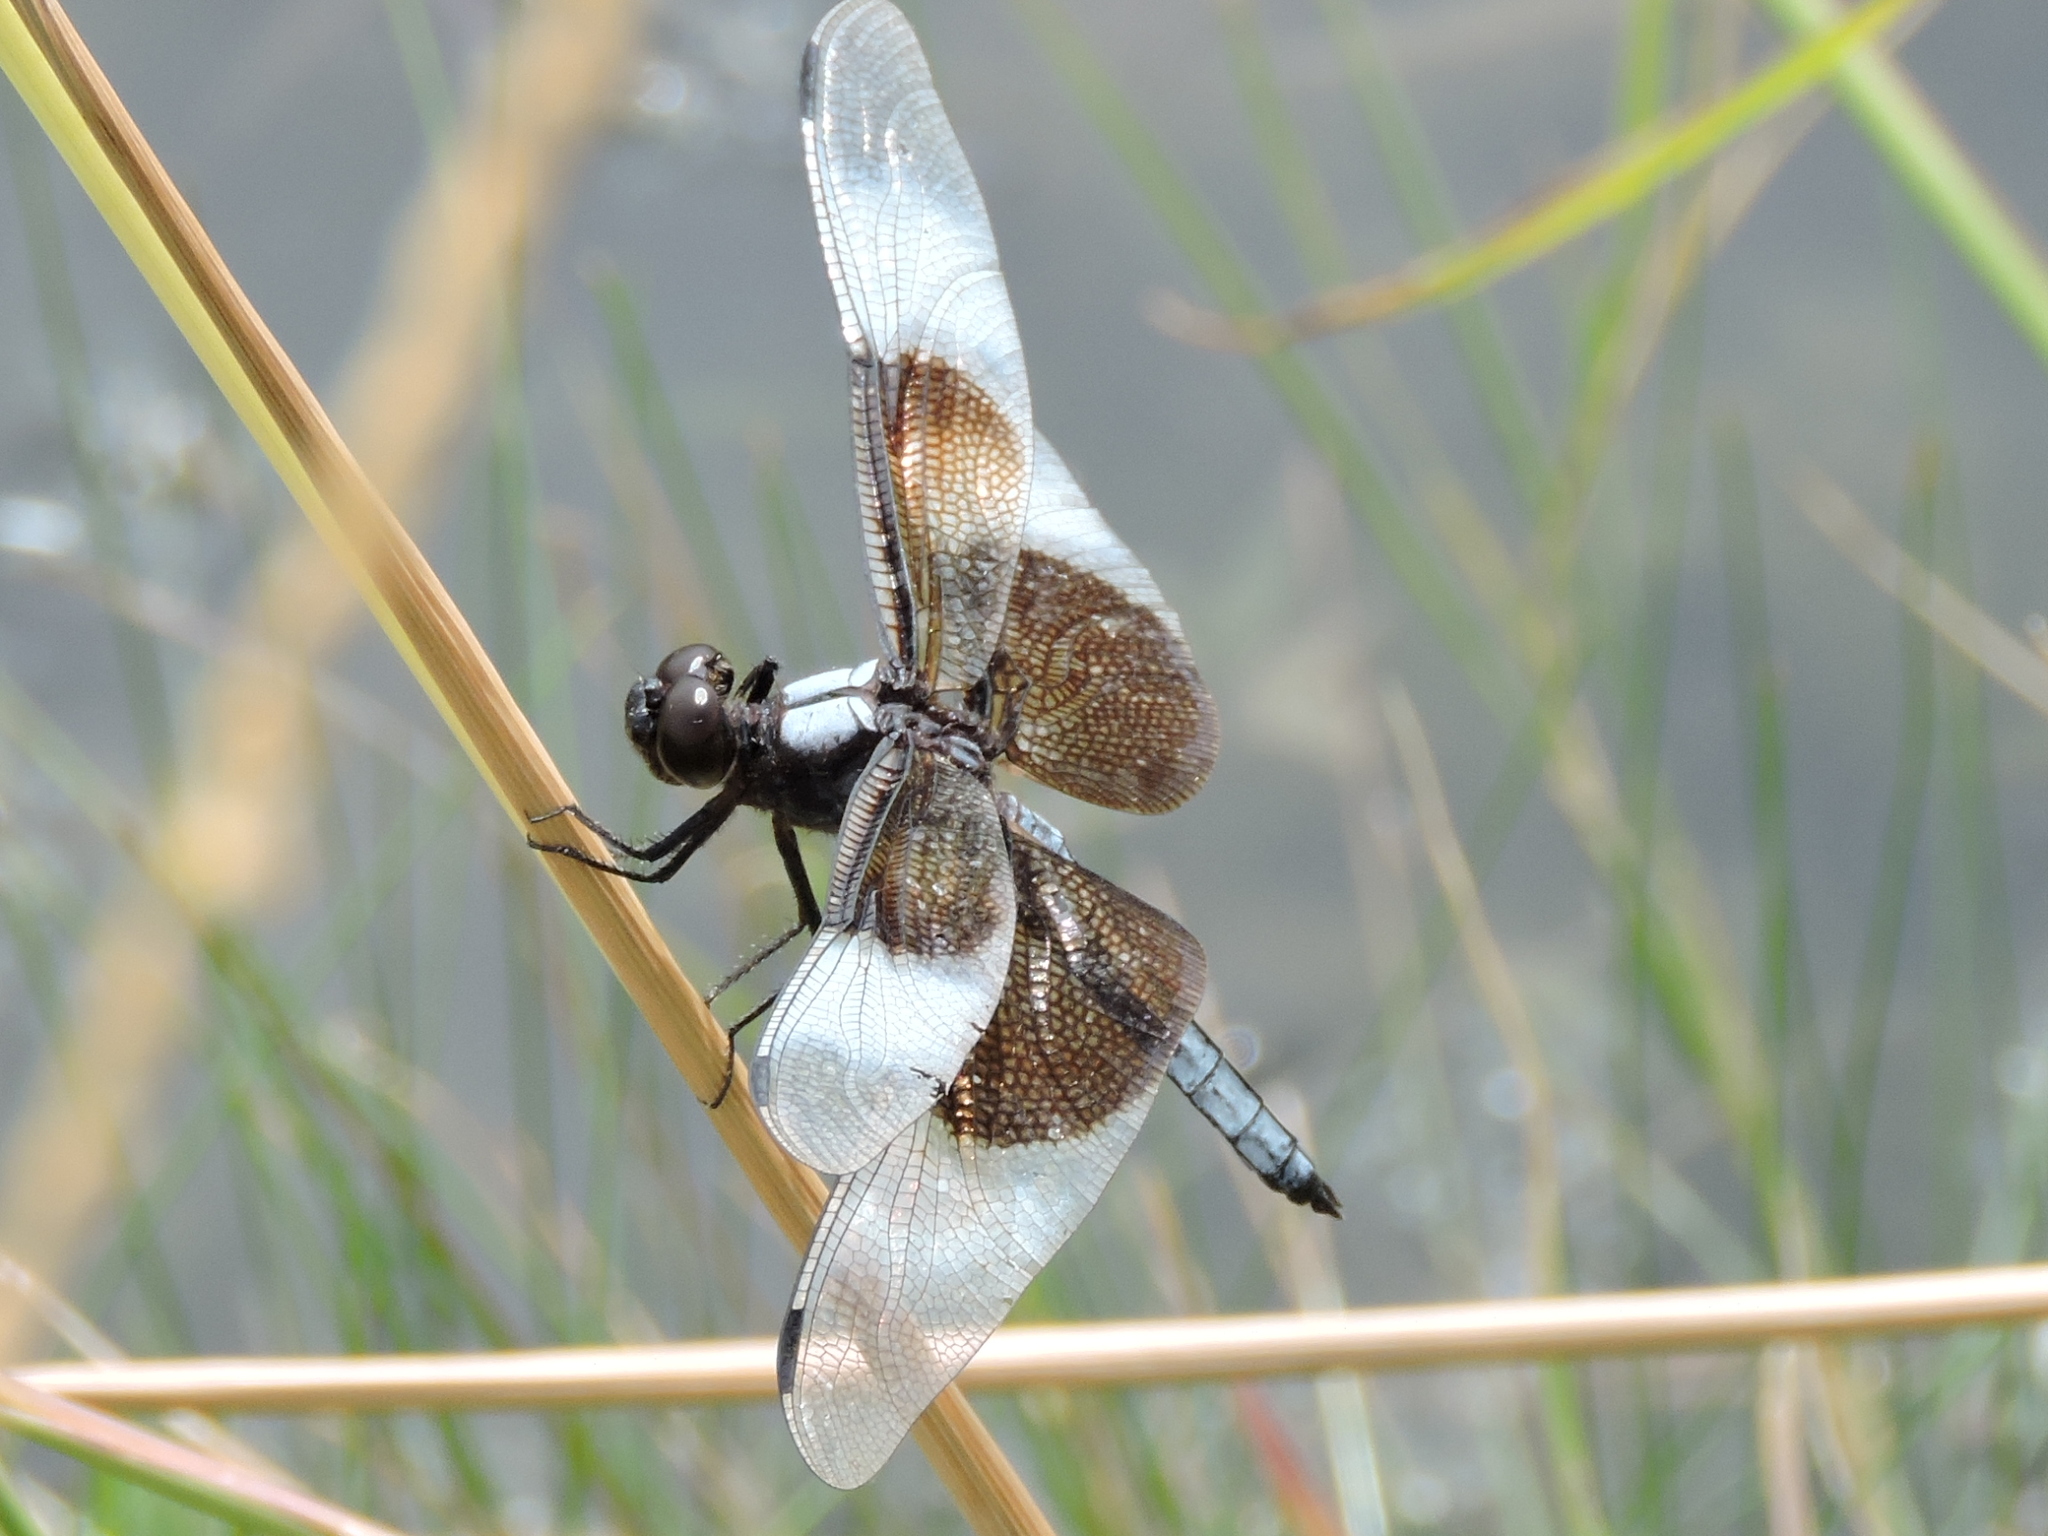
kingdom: Animalia
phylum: Arthropoda
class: Insecta
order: Odonata
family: Libellulidae
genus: Libellula
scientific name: Libellula luctuosa
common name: Widow skimmer
